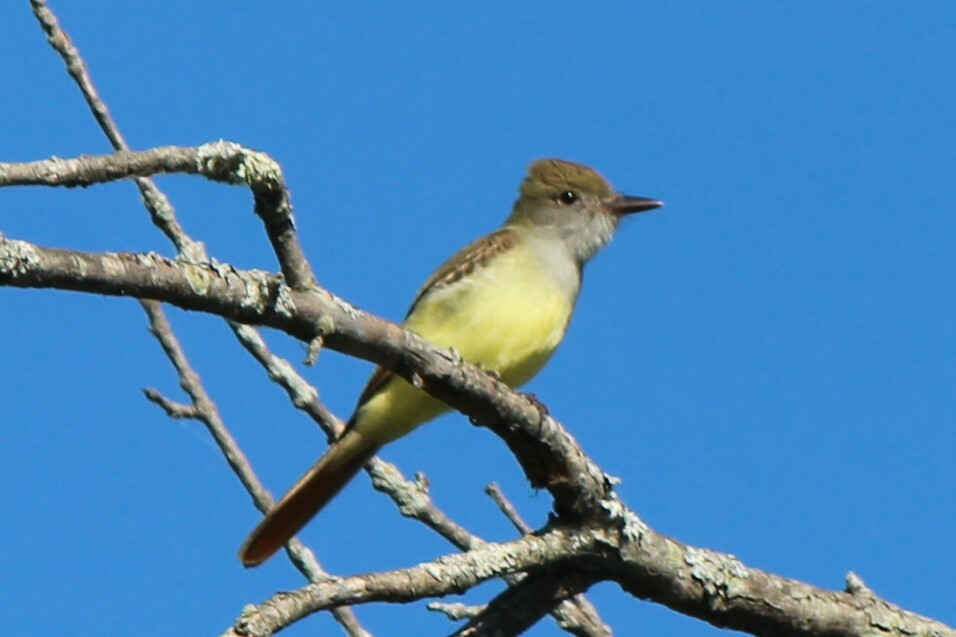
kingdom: Animalia
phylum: Chordata
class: Aves
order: Passeriformes
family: Tyrannidae
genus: Myiarchus
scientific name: Myiarchus crinitus
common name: Great crested flycatcher
